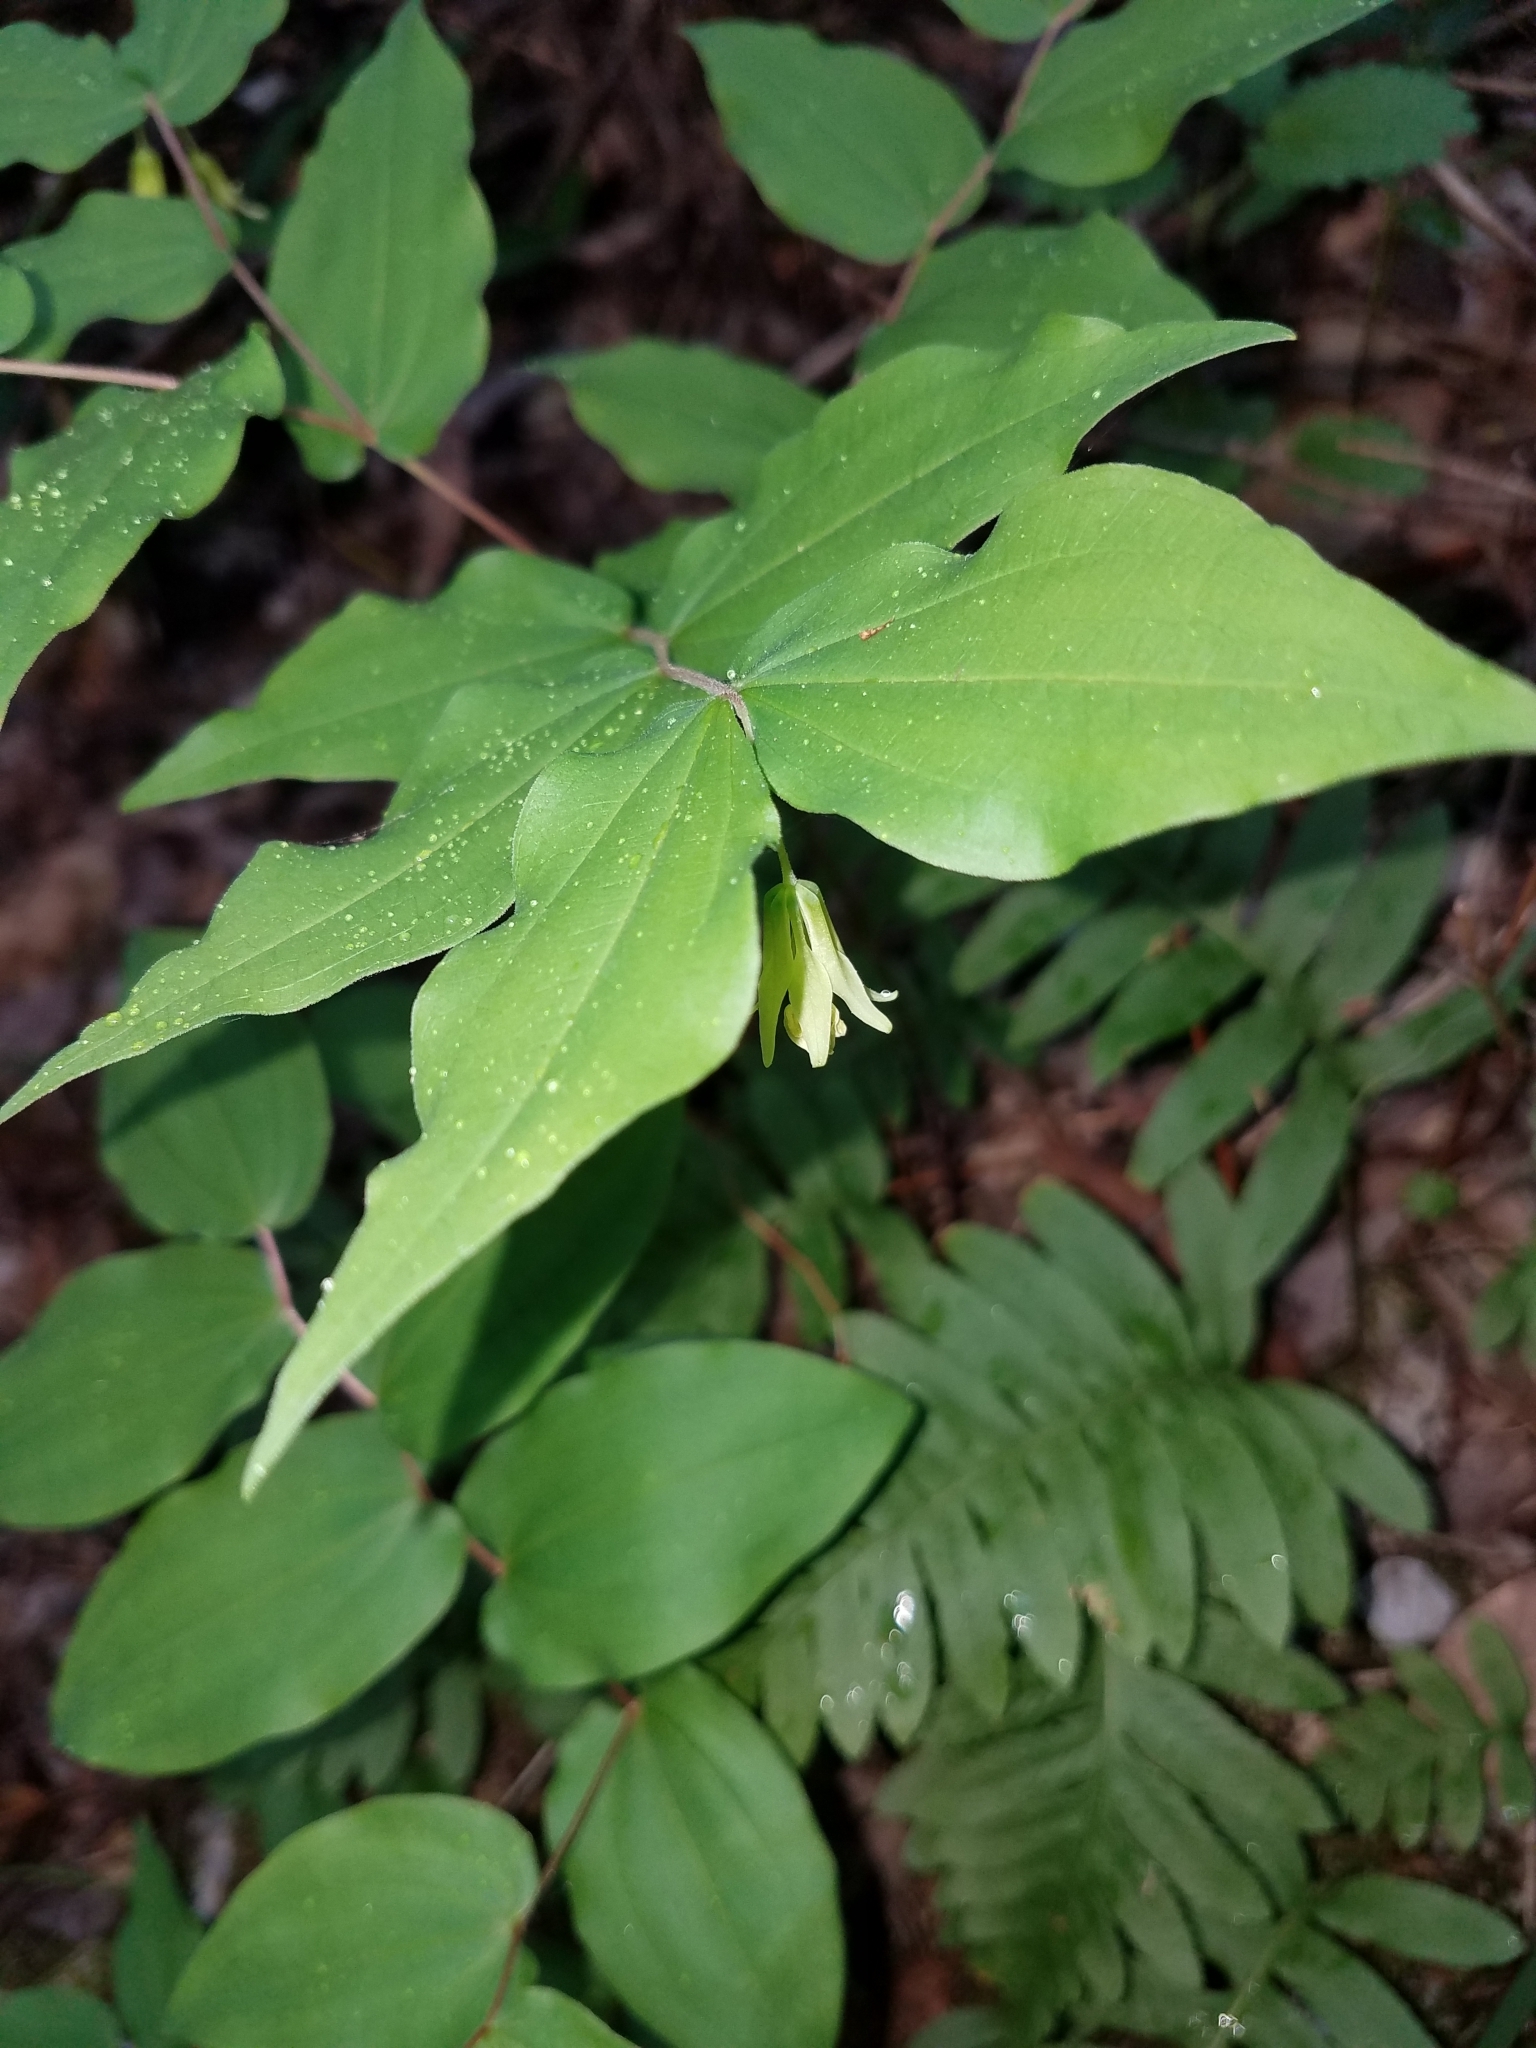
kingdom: Plantae
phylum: Tracheophyta
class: Liliopsida
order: Liliales
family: Liliaceae
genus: Prosartes
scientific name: Prosartes hookeri
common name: Fairy-bells
